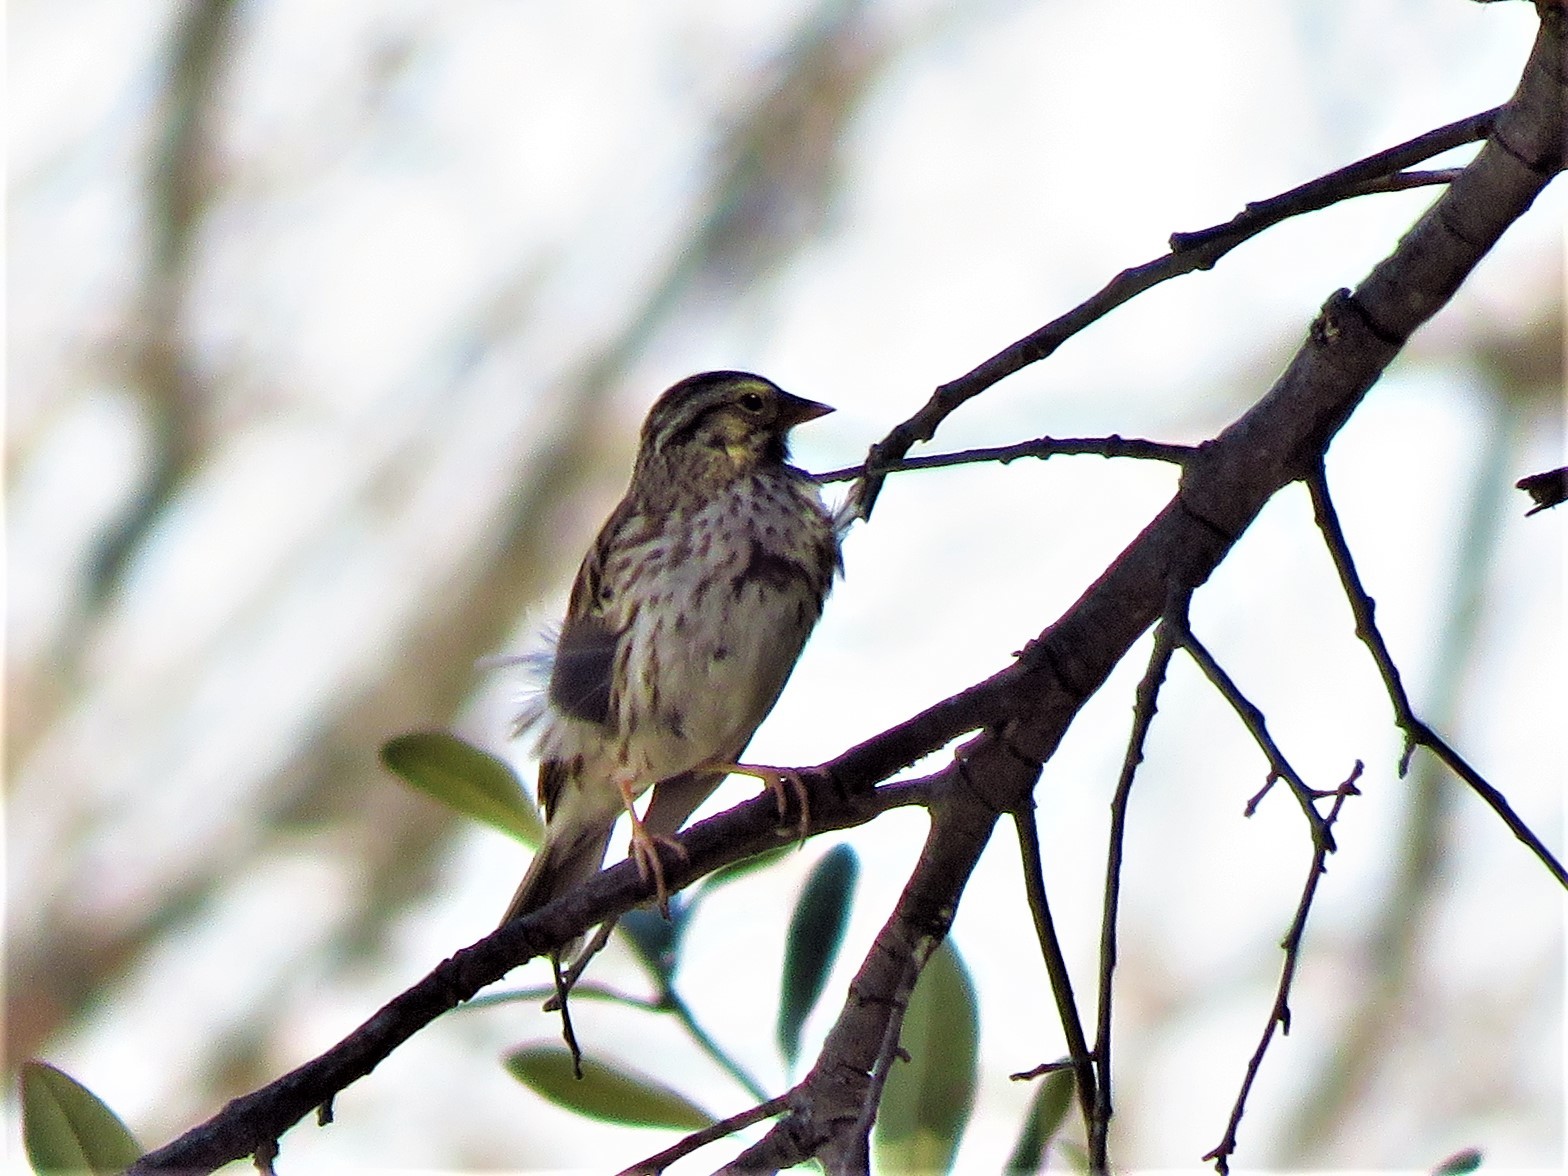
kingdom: Animalia
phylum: Chordata
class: Aves
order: Passeriformes
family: Passerellidae
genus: Passerculus
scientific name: Passerculus sandwichensis
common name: Savannah sparrow
